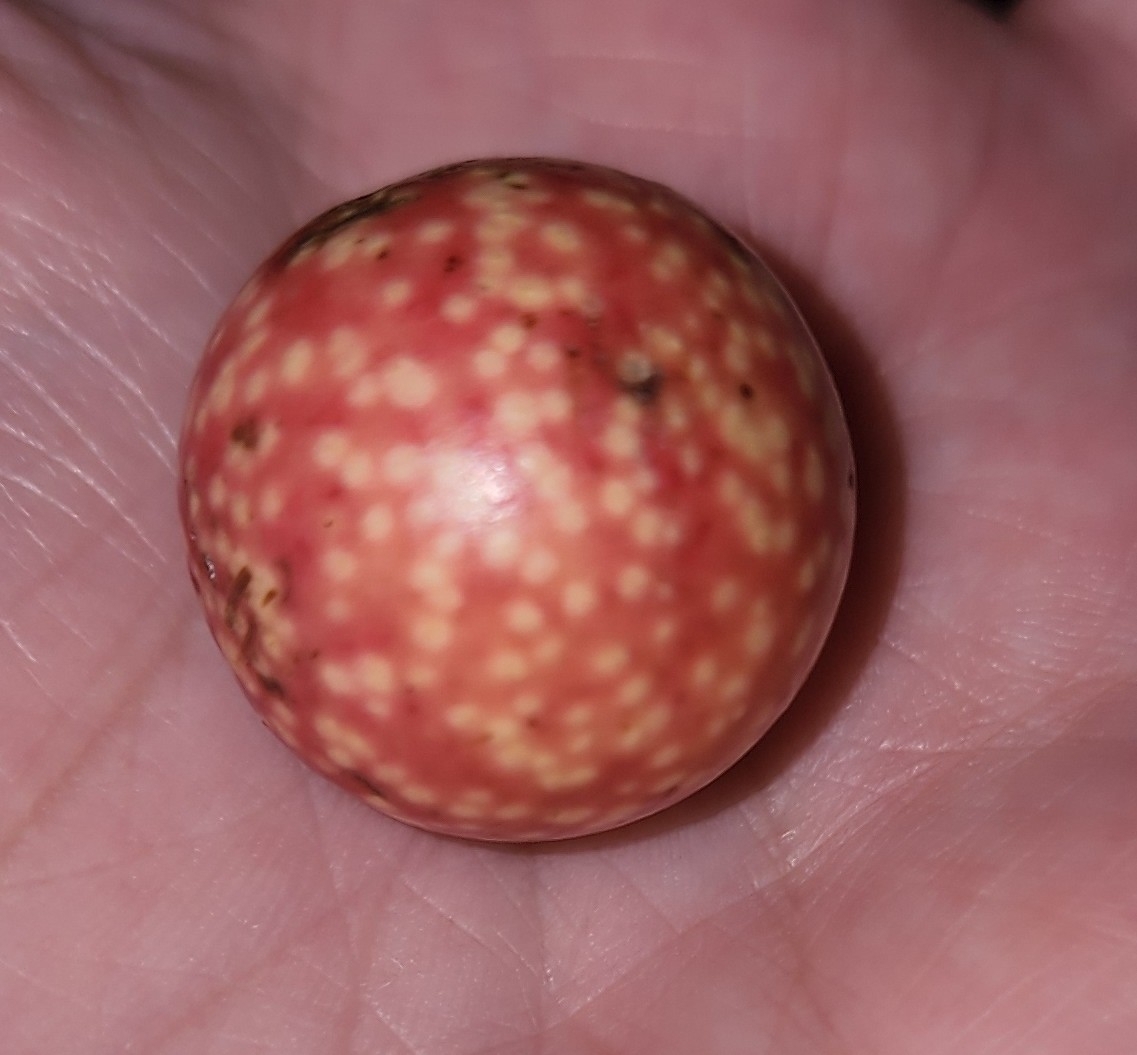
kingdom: Animalia
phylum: Arthropoda
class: Insecta
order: Hymenoptera
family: Cynipidae
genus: Amphibolips
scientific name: Amphibolips
